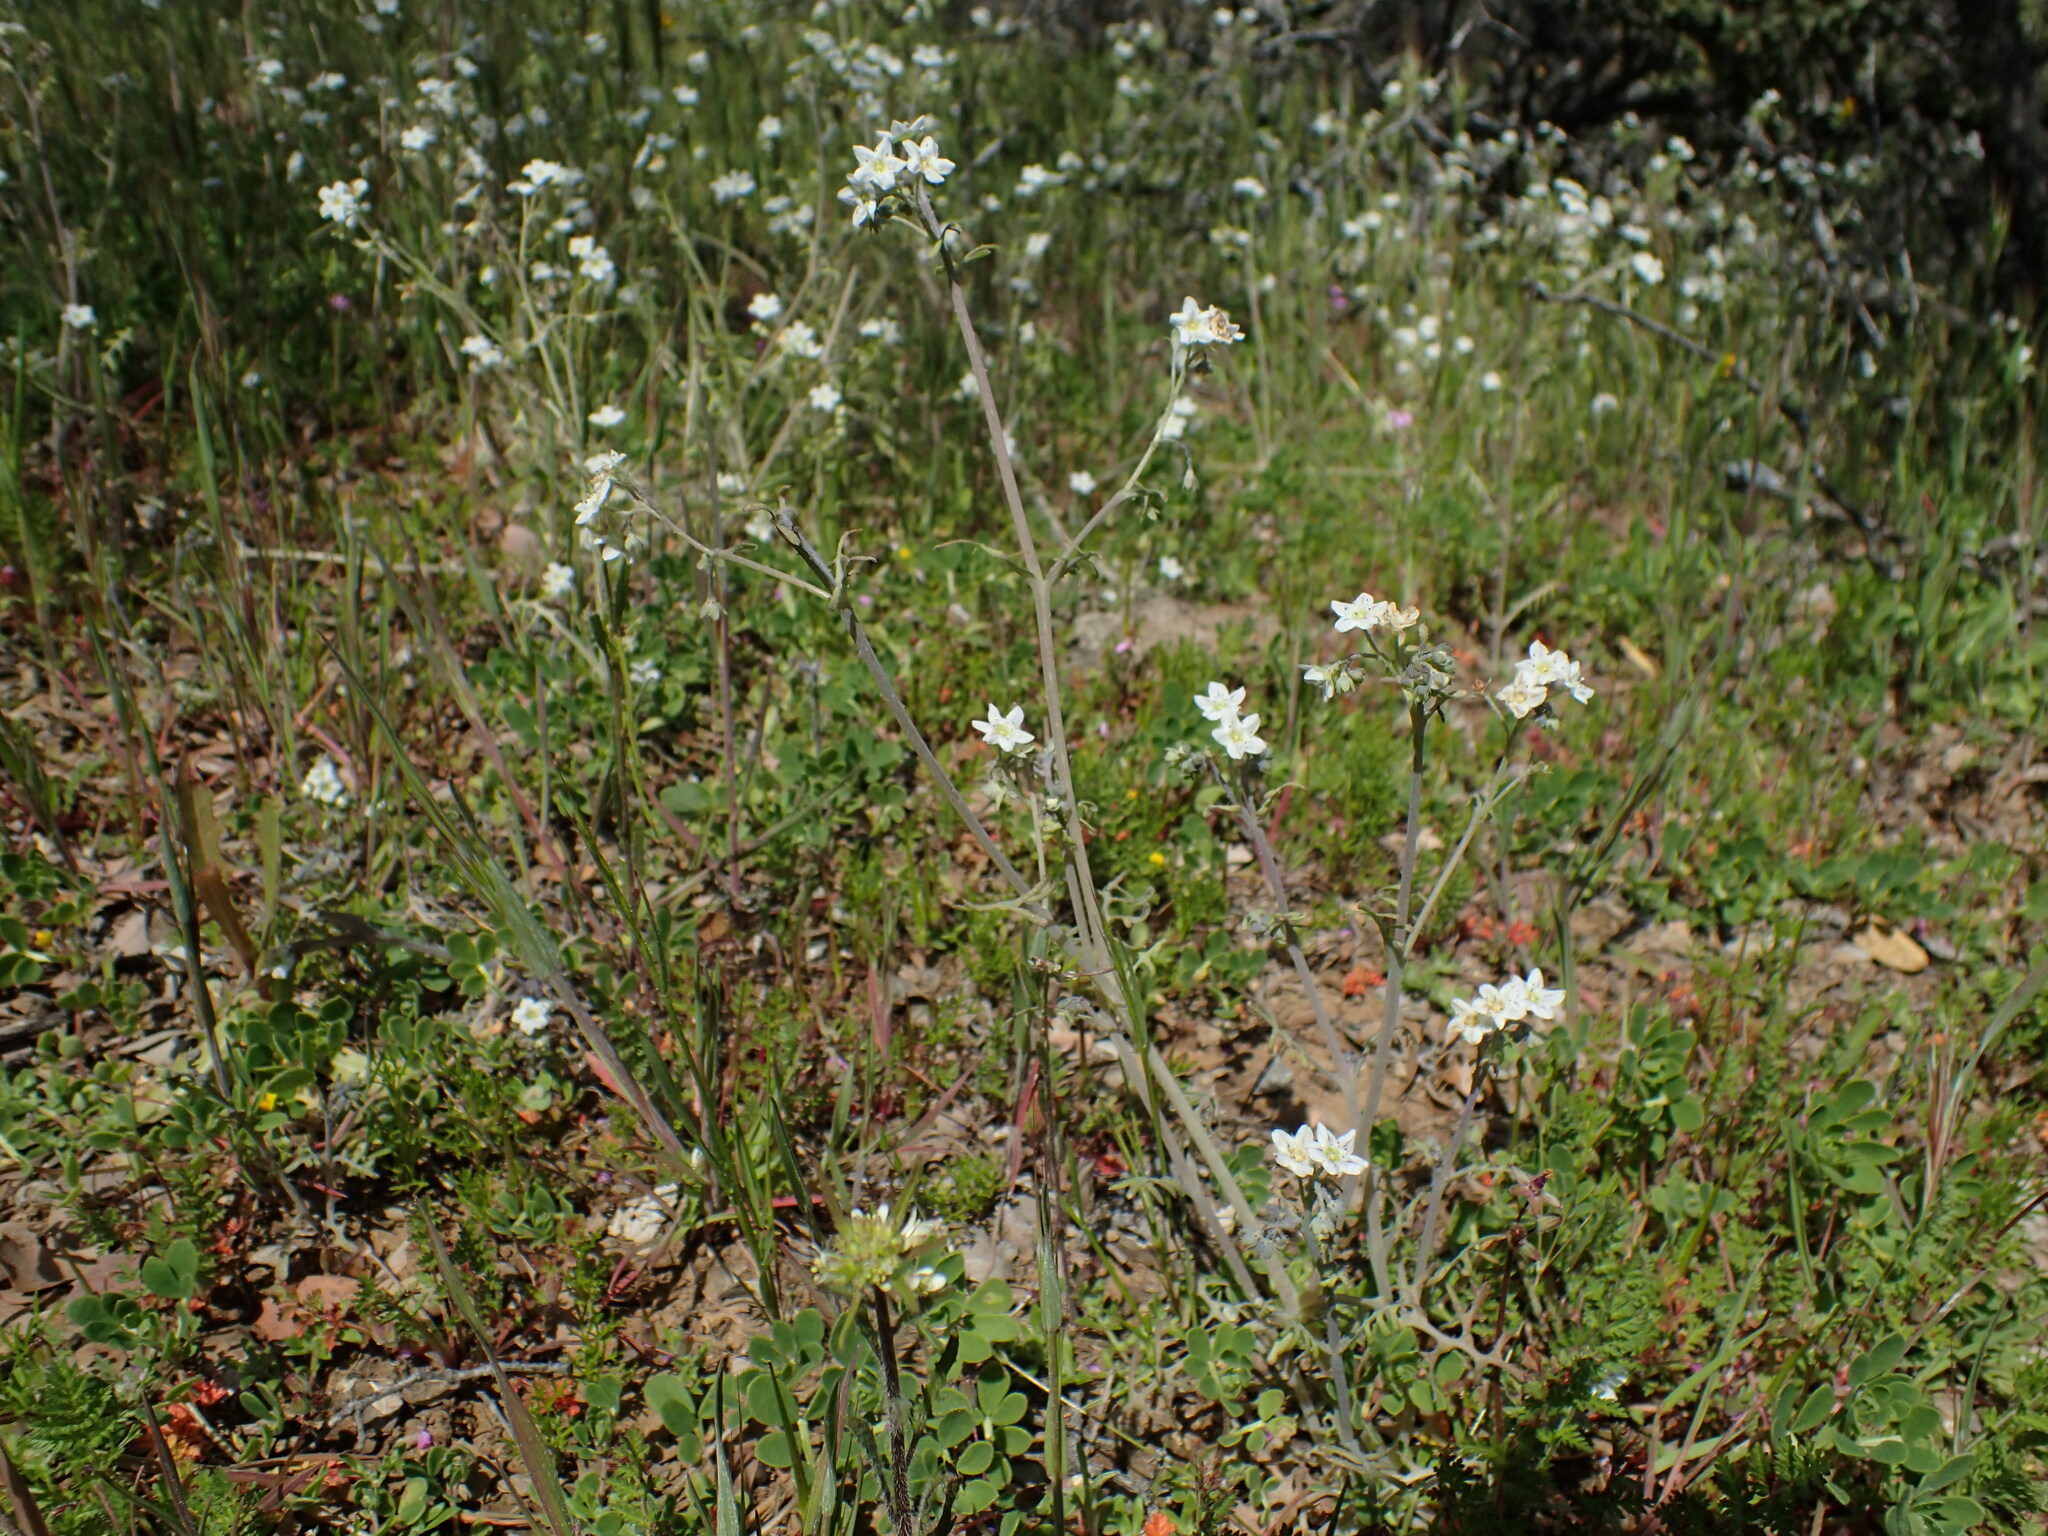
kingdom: Plantae
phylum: Tracheophyta
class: Magnoliopsida
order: Boraginales
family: Hydrophyllaceae
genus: Pholistoma
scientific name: Pholistoma membranaceum
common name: White fiesta-flower
